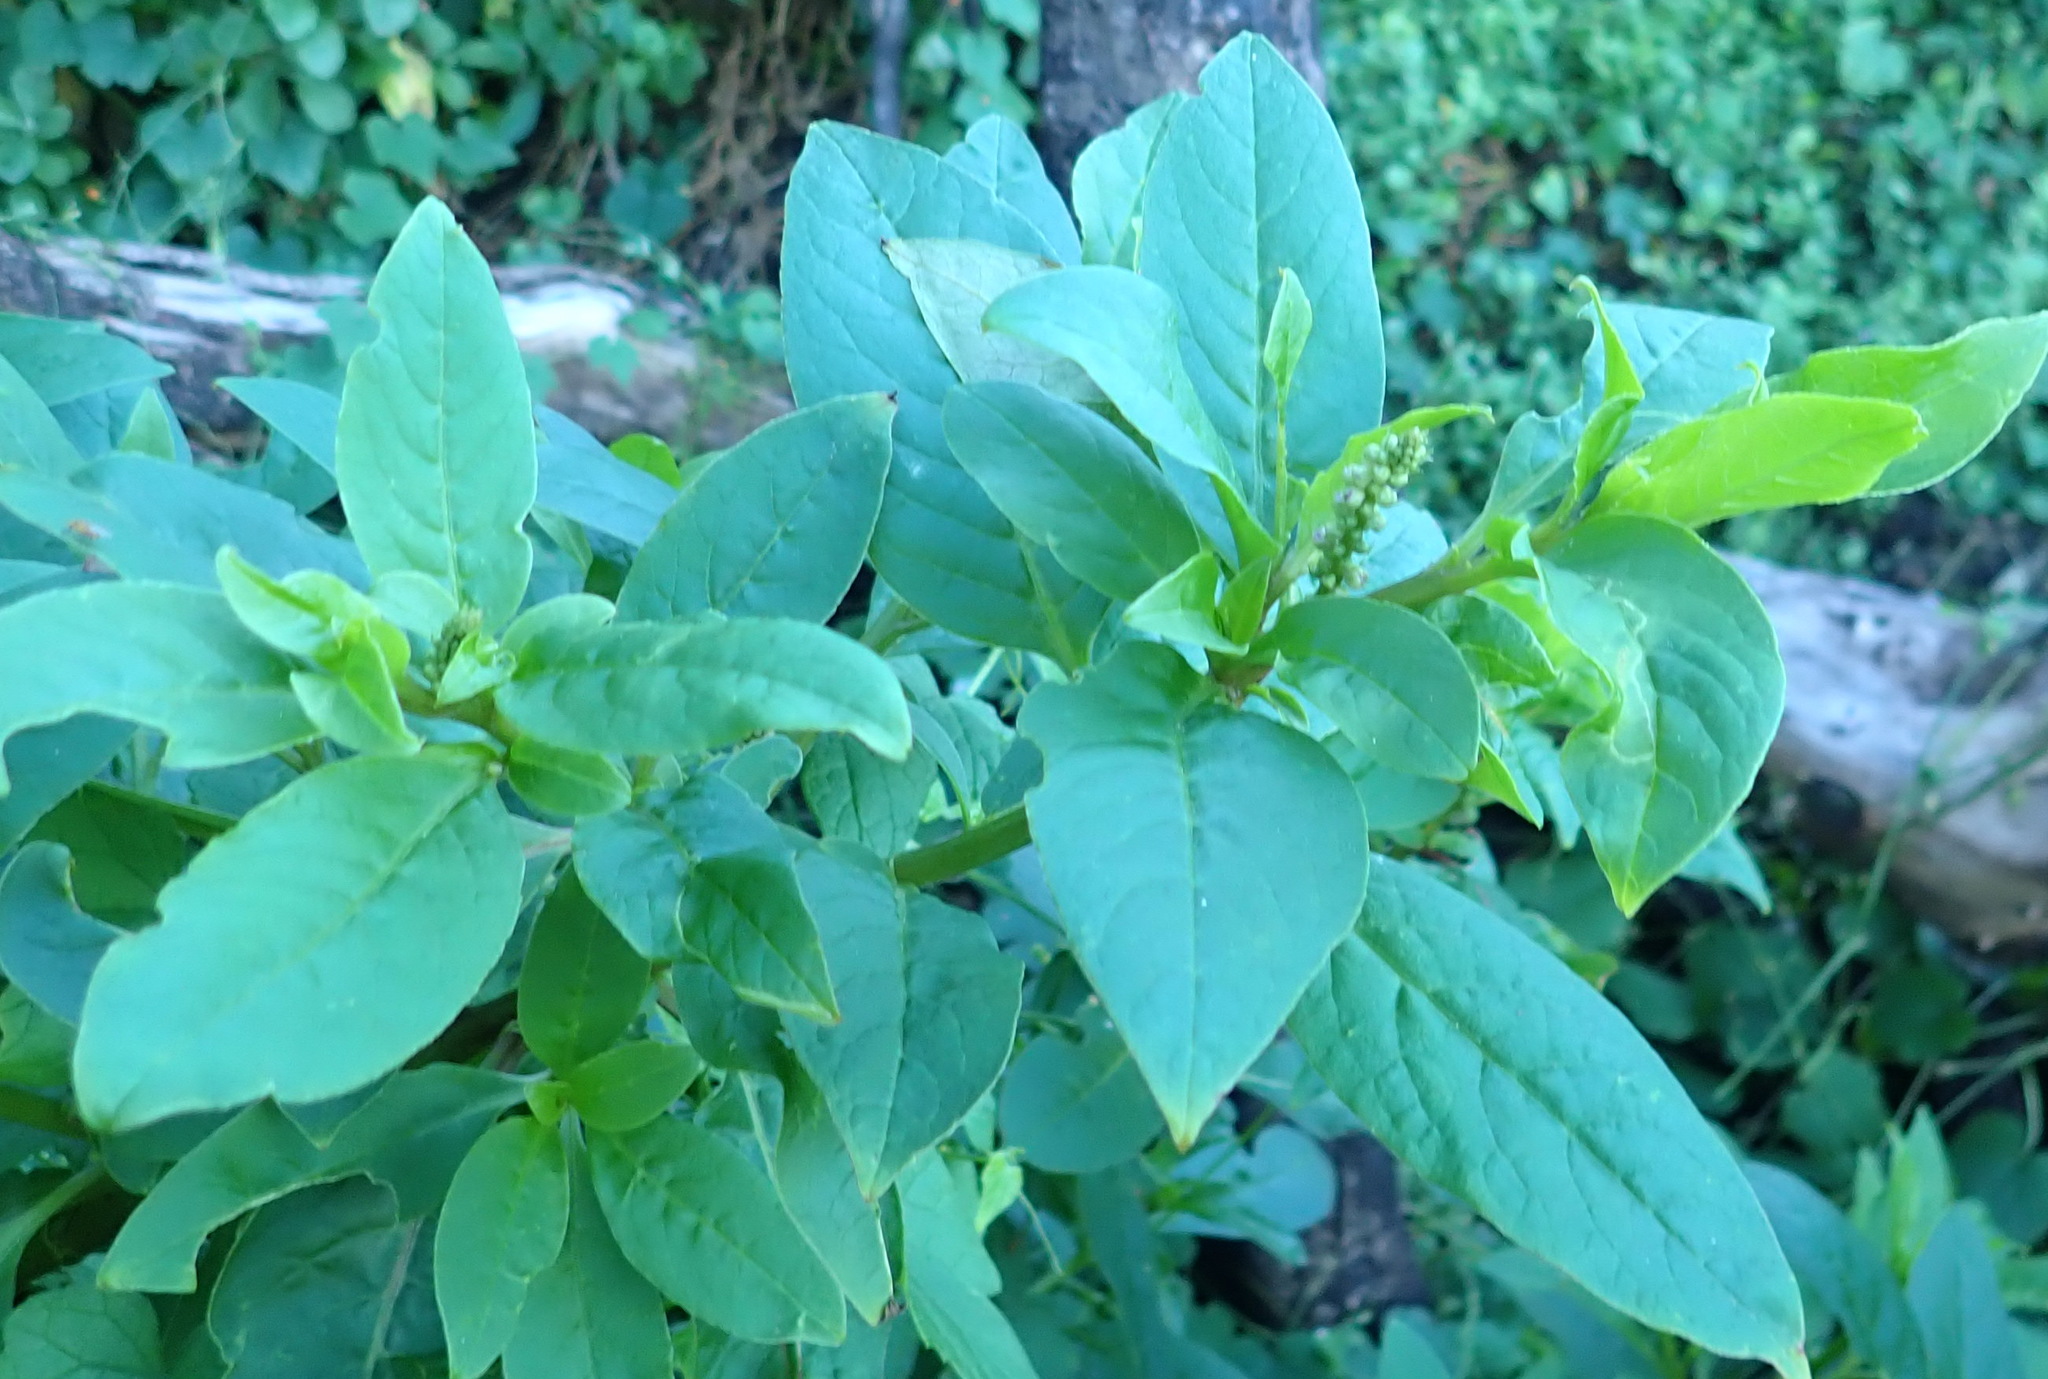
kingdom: Plantae
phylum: Tracheophyta
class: Magnoliopsida
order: Caryophyllales
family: Phytolaccaceae
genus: Phytolacca
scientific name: Phytolacca icosandra
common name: Button pokeweed
